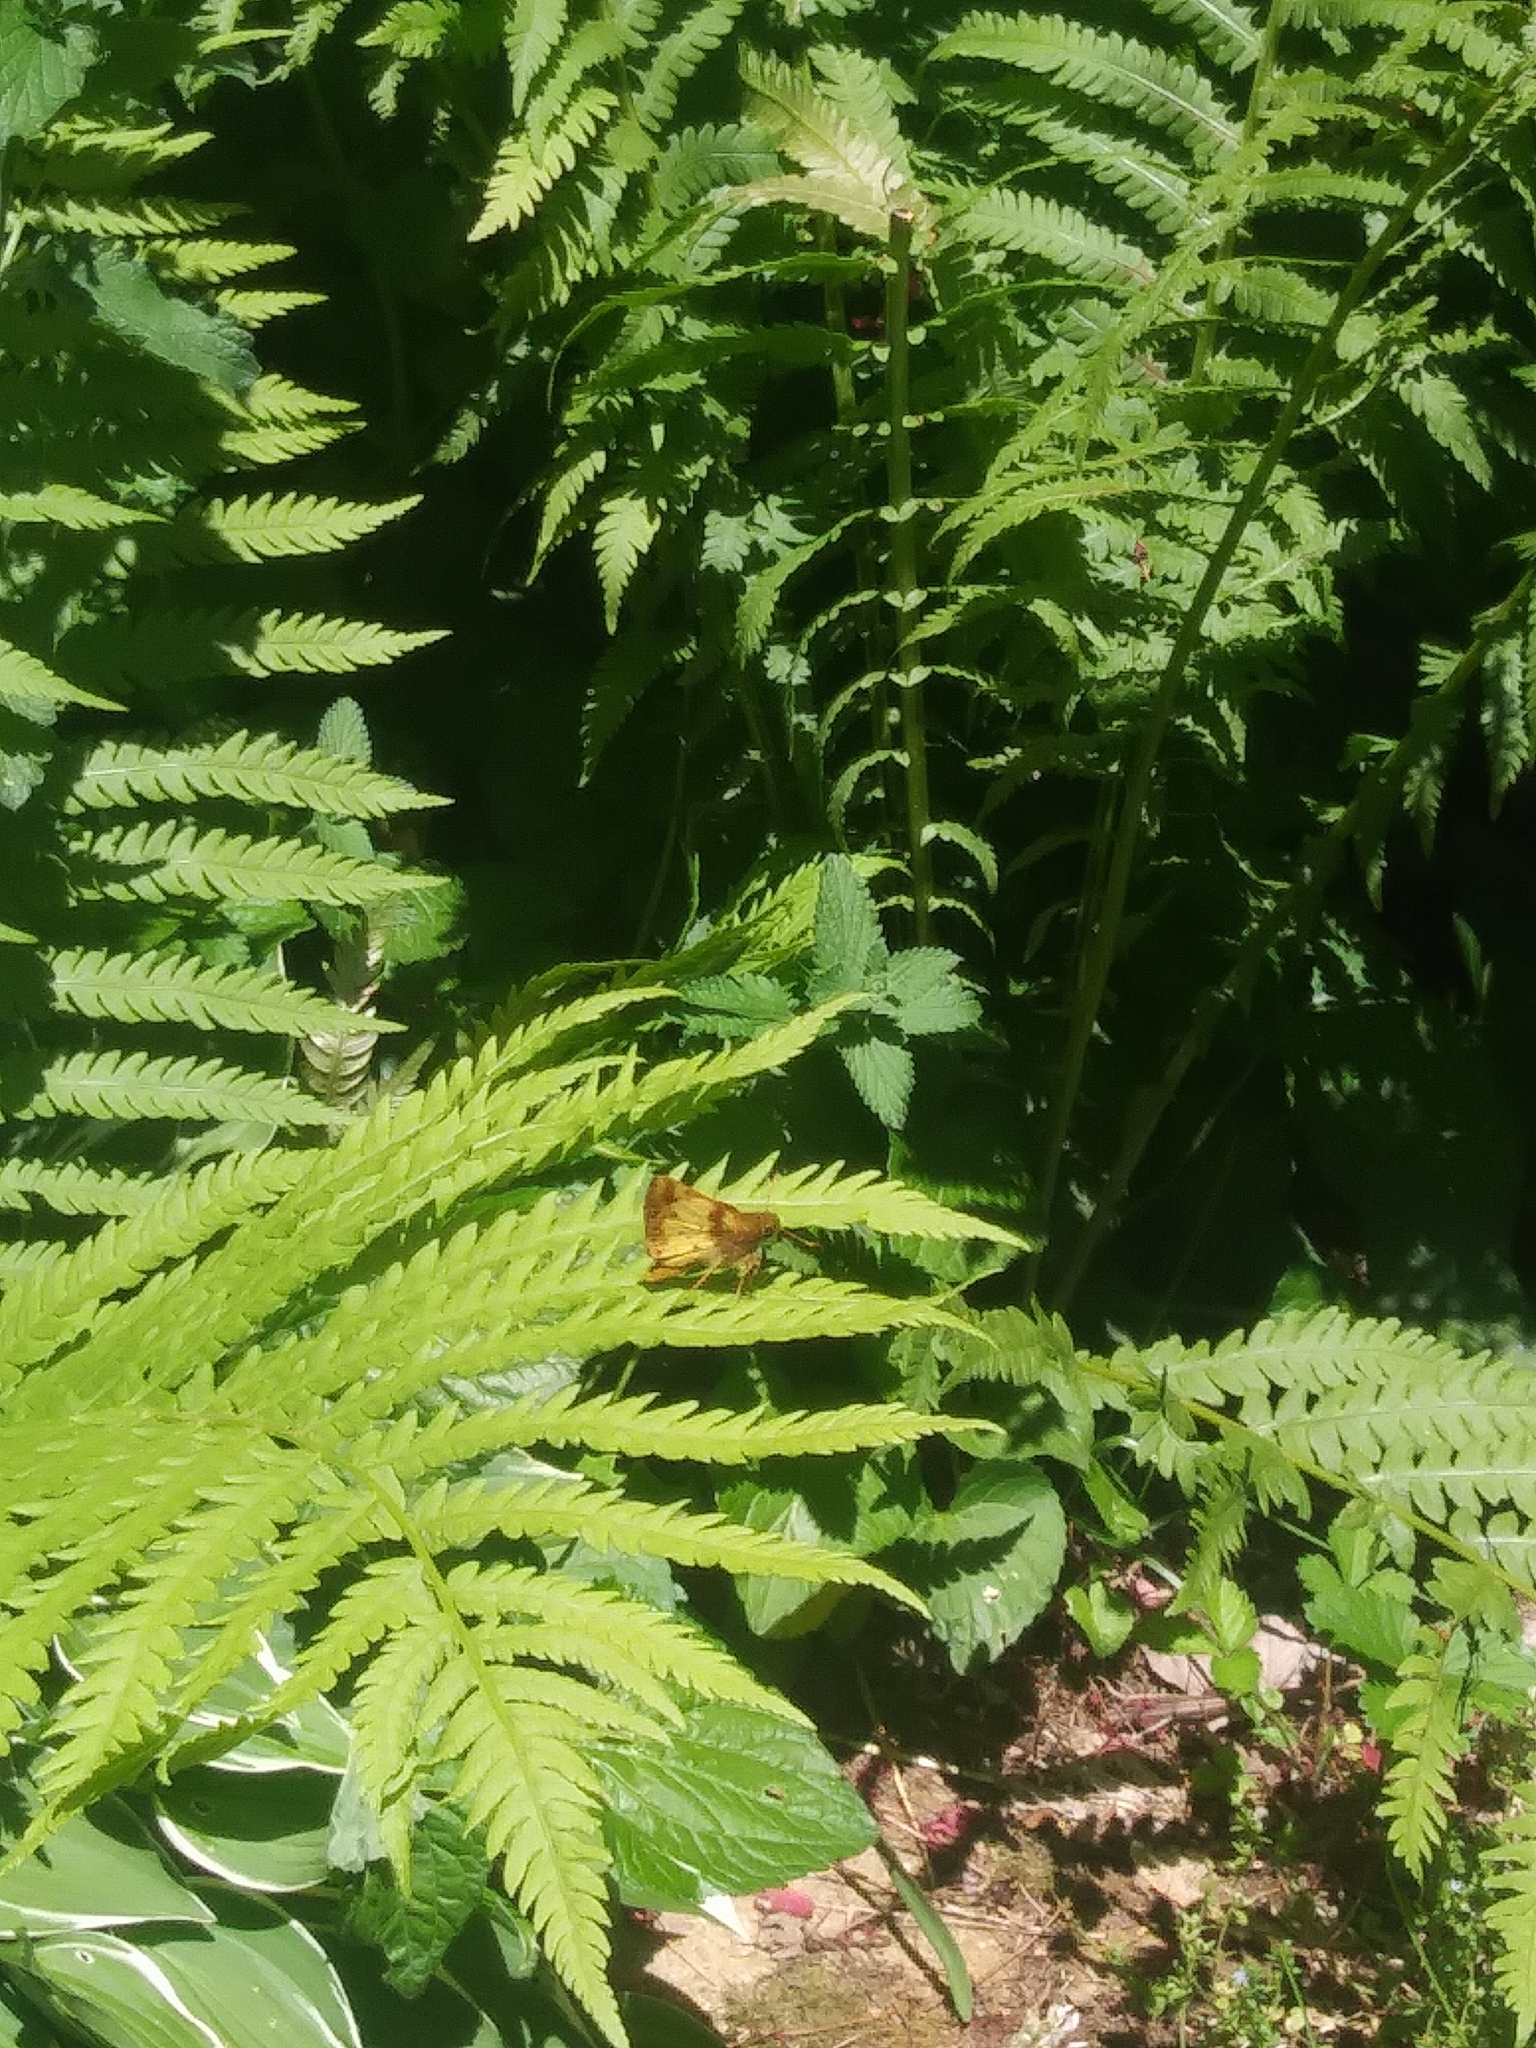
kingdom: Animalia
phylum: Arthropoda
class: Insecta
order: Lepidoptera
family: Hesperiidae
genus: Lon
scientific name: Lon zabulon
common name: Zabulon skipper
